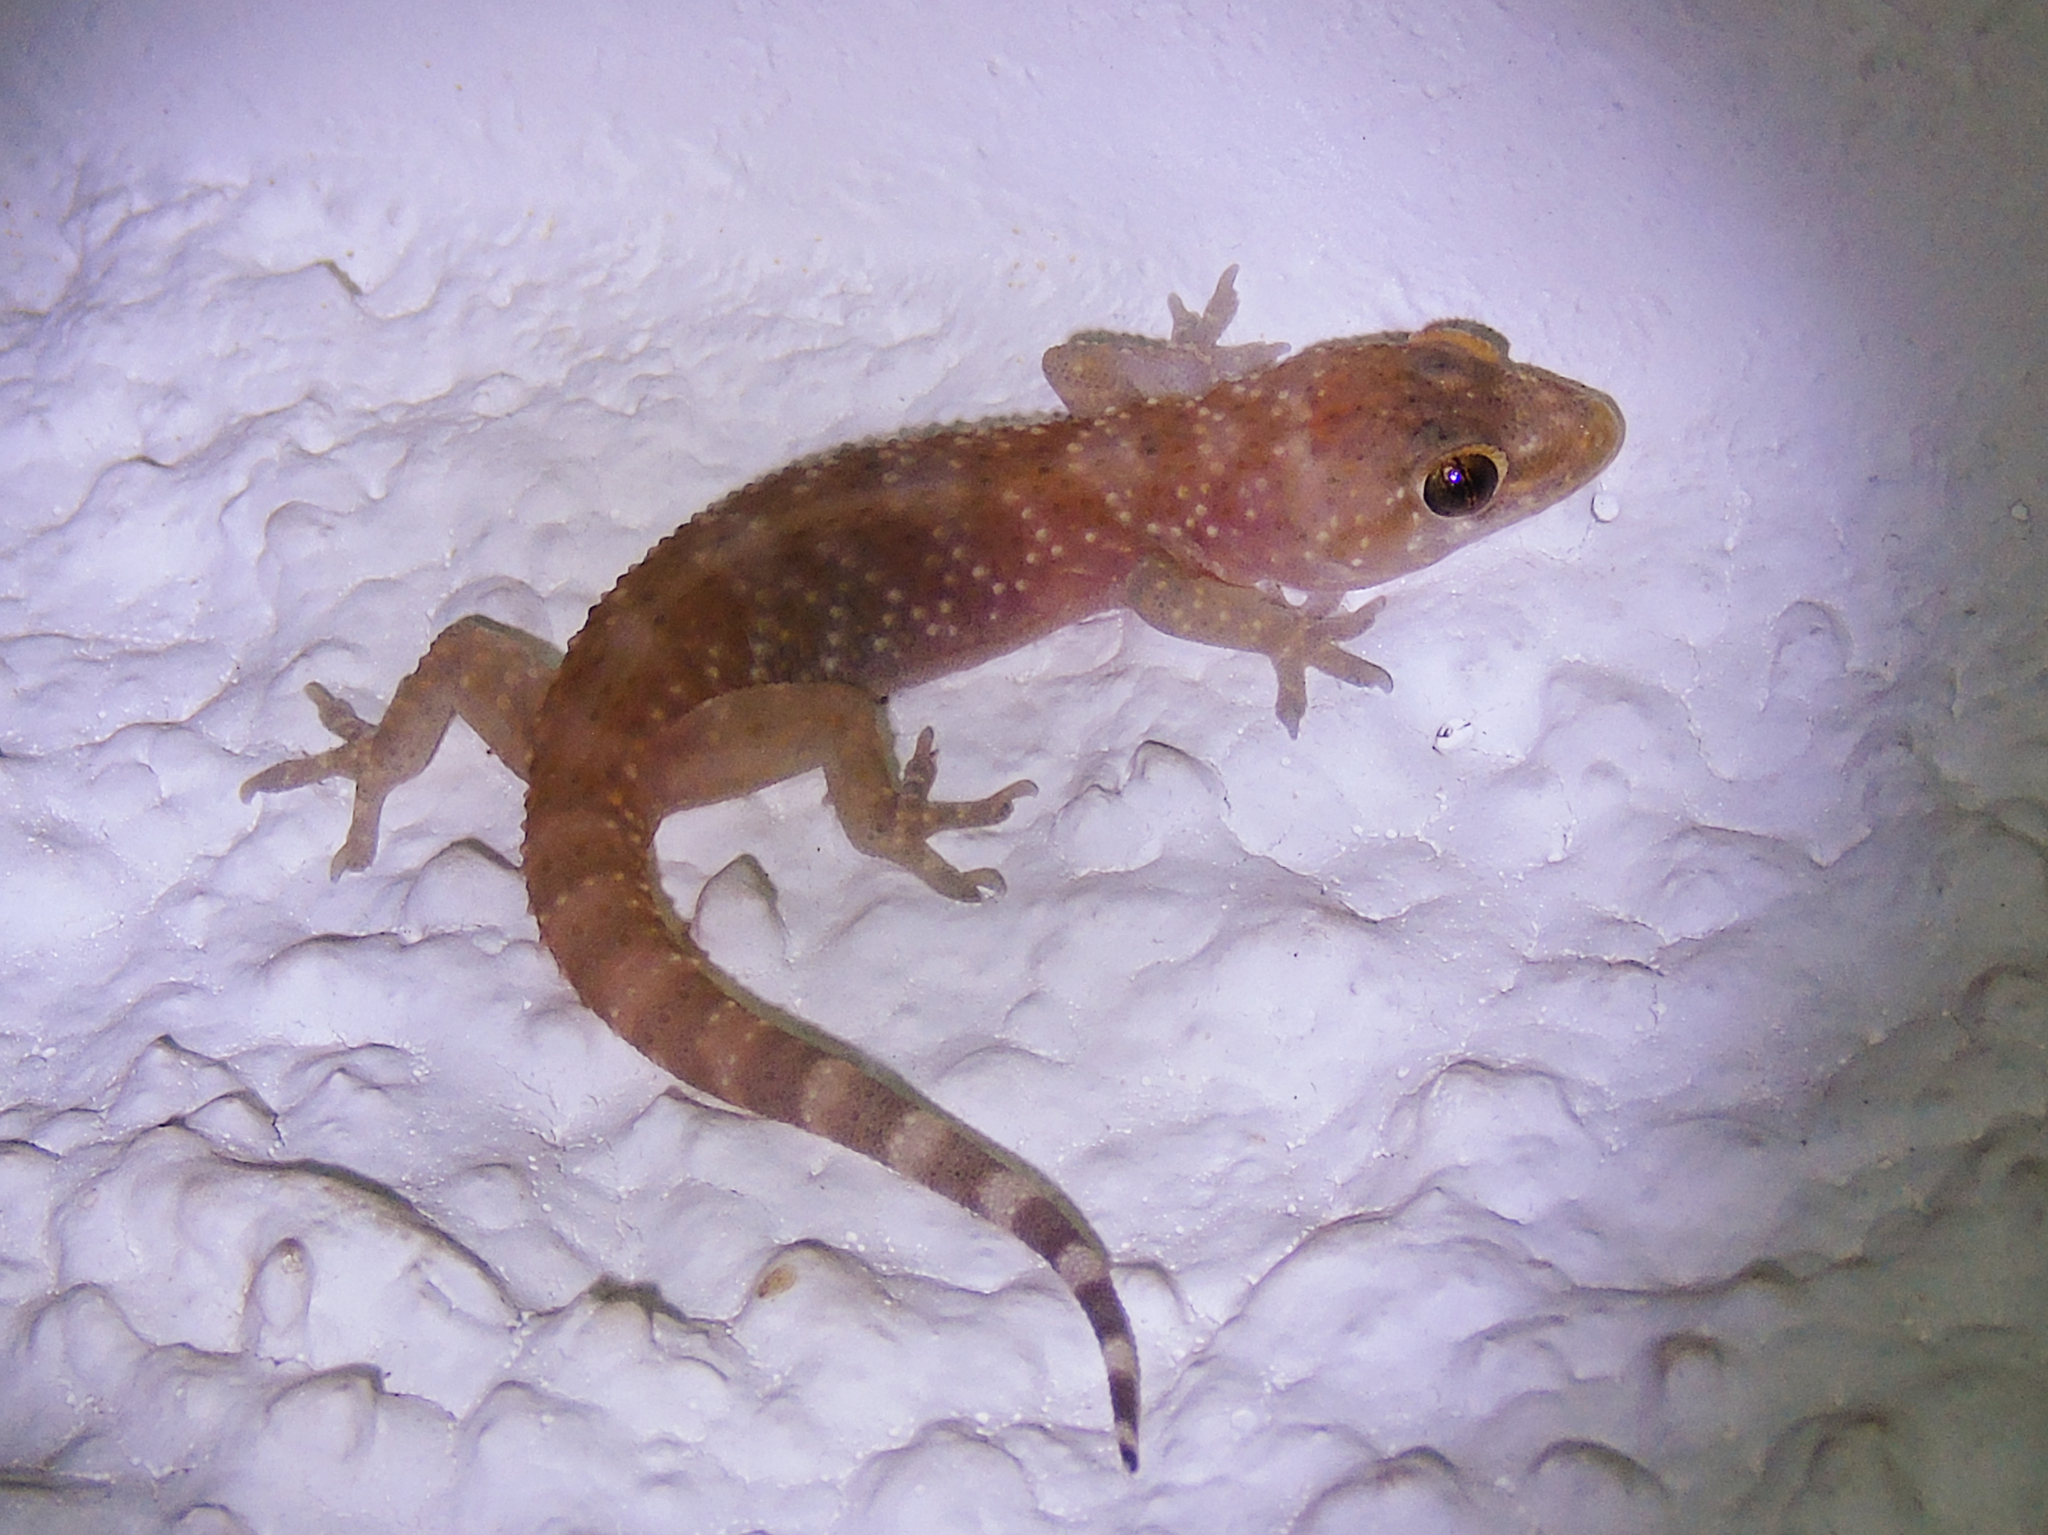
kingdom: Animalia
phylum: Chordata
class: Squamata
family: Gekkonidae
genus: Hemidactylus
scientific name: Hemidactylus turcicus
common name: Turkish gecko
